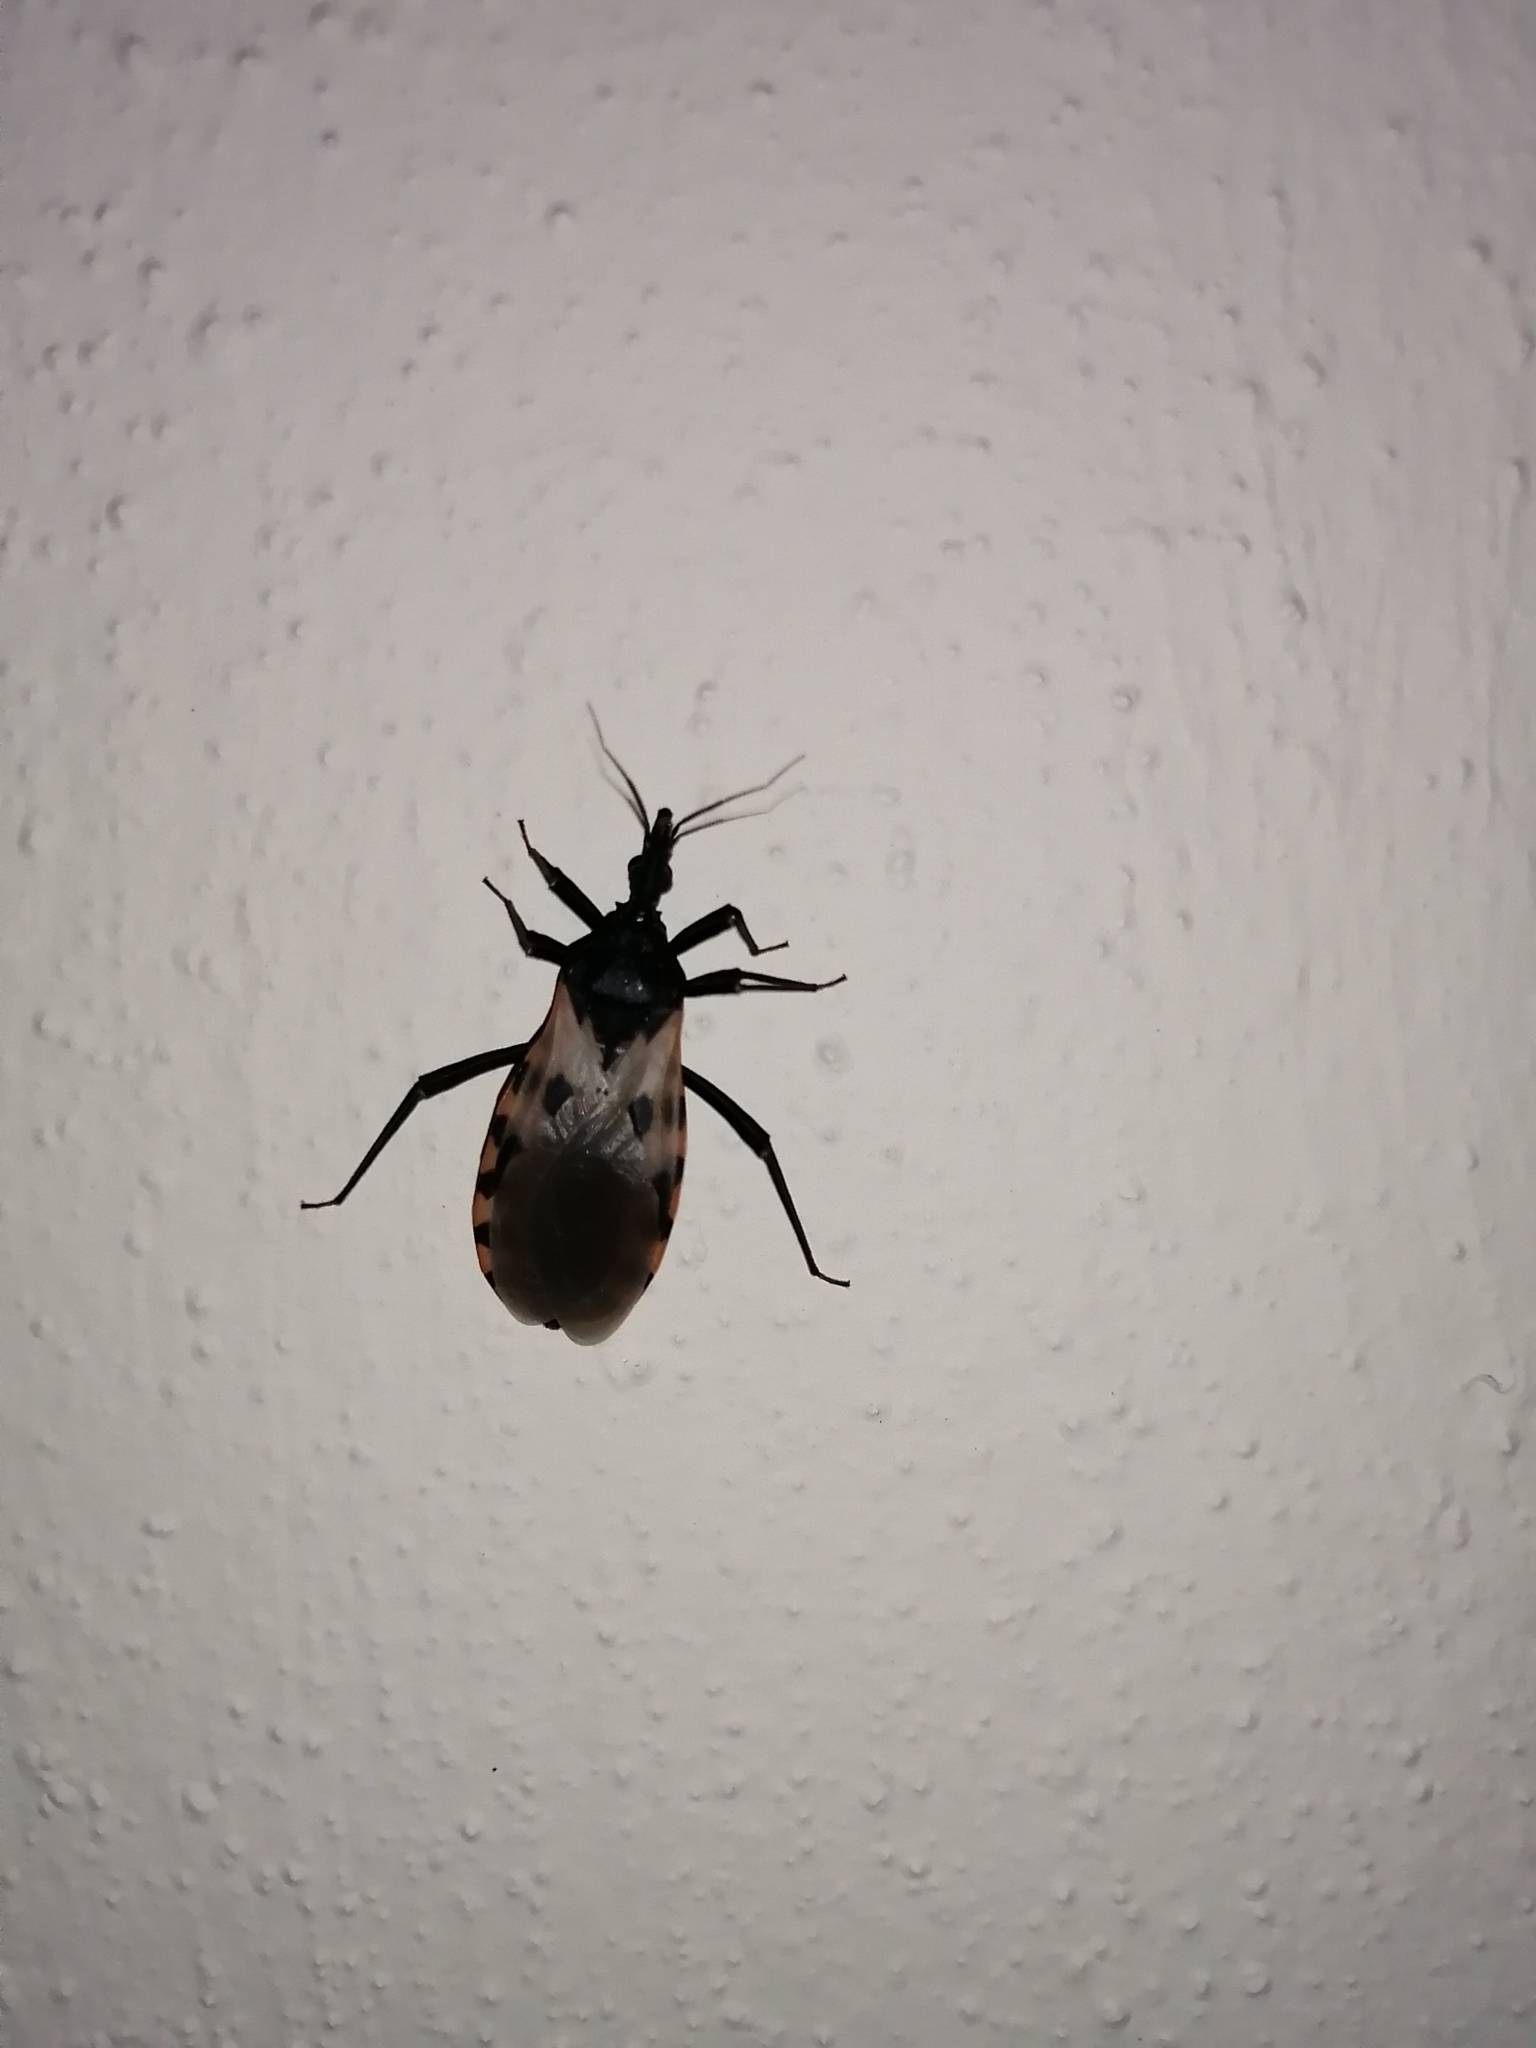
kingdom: Animalia
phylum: Arthropoda
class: Insecta
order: Hemiptera
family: Reduviidae
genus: Meccus
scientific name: Meccus dimidiatus
